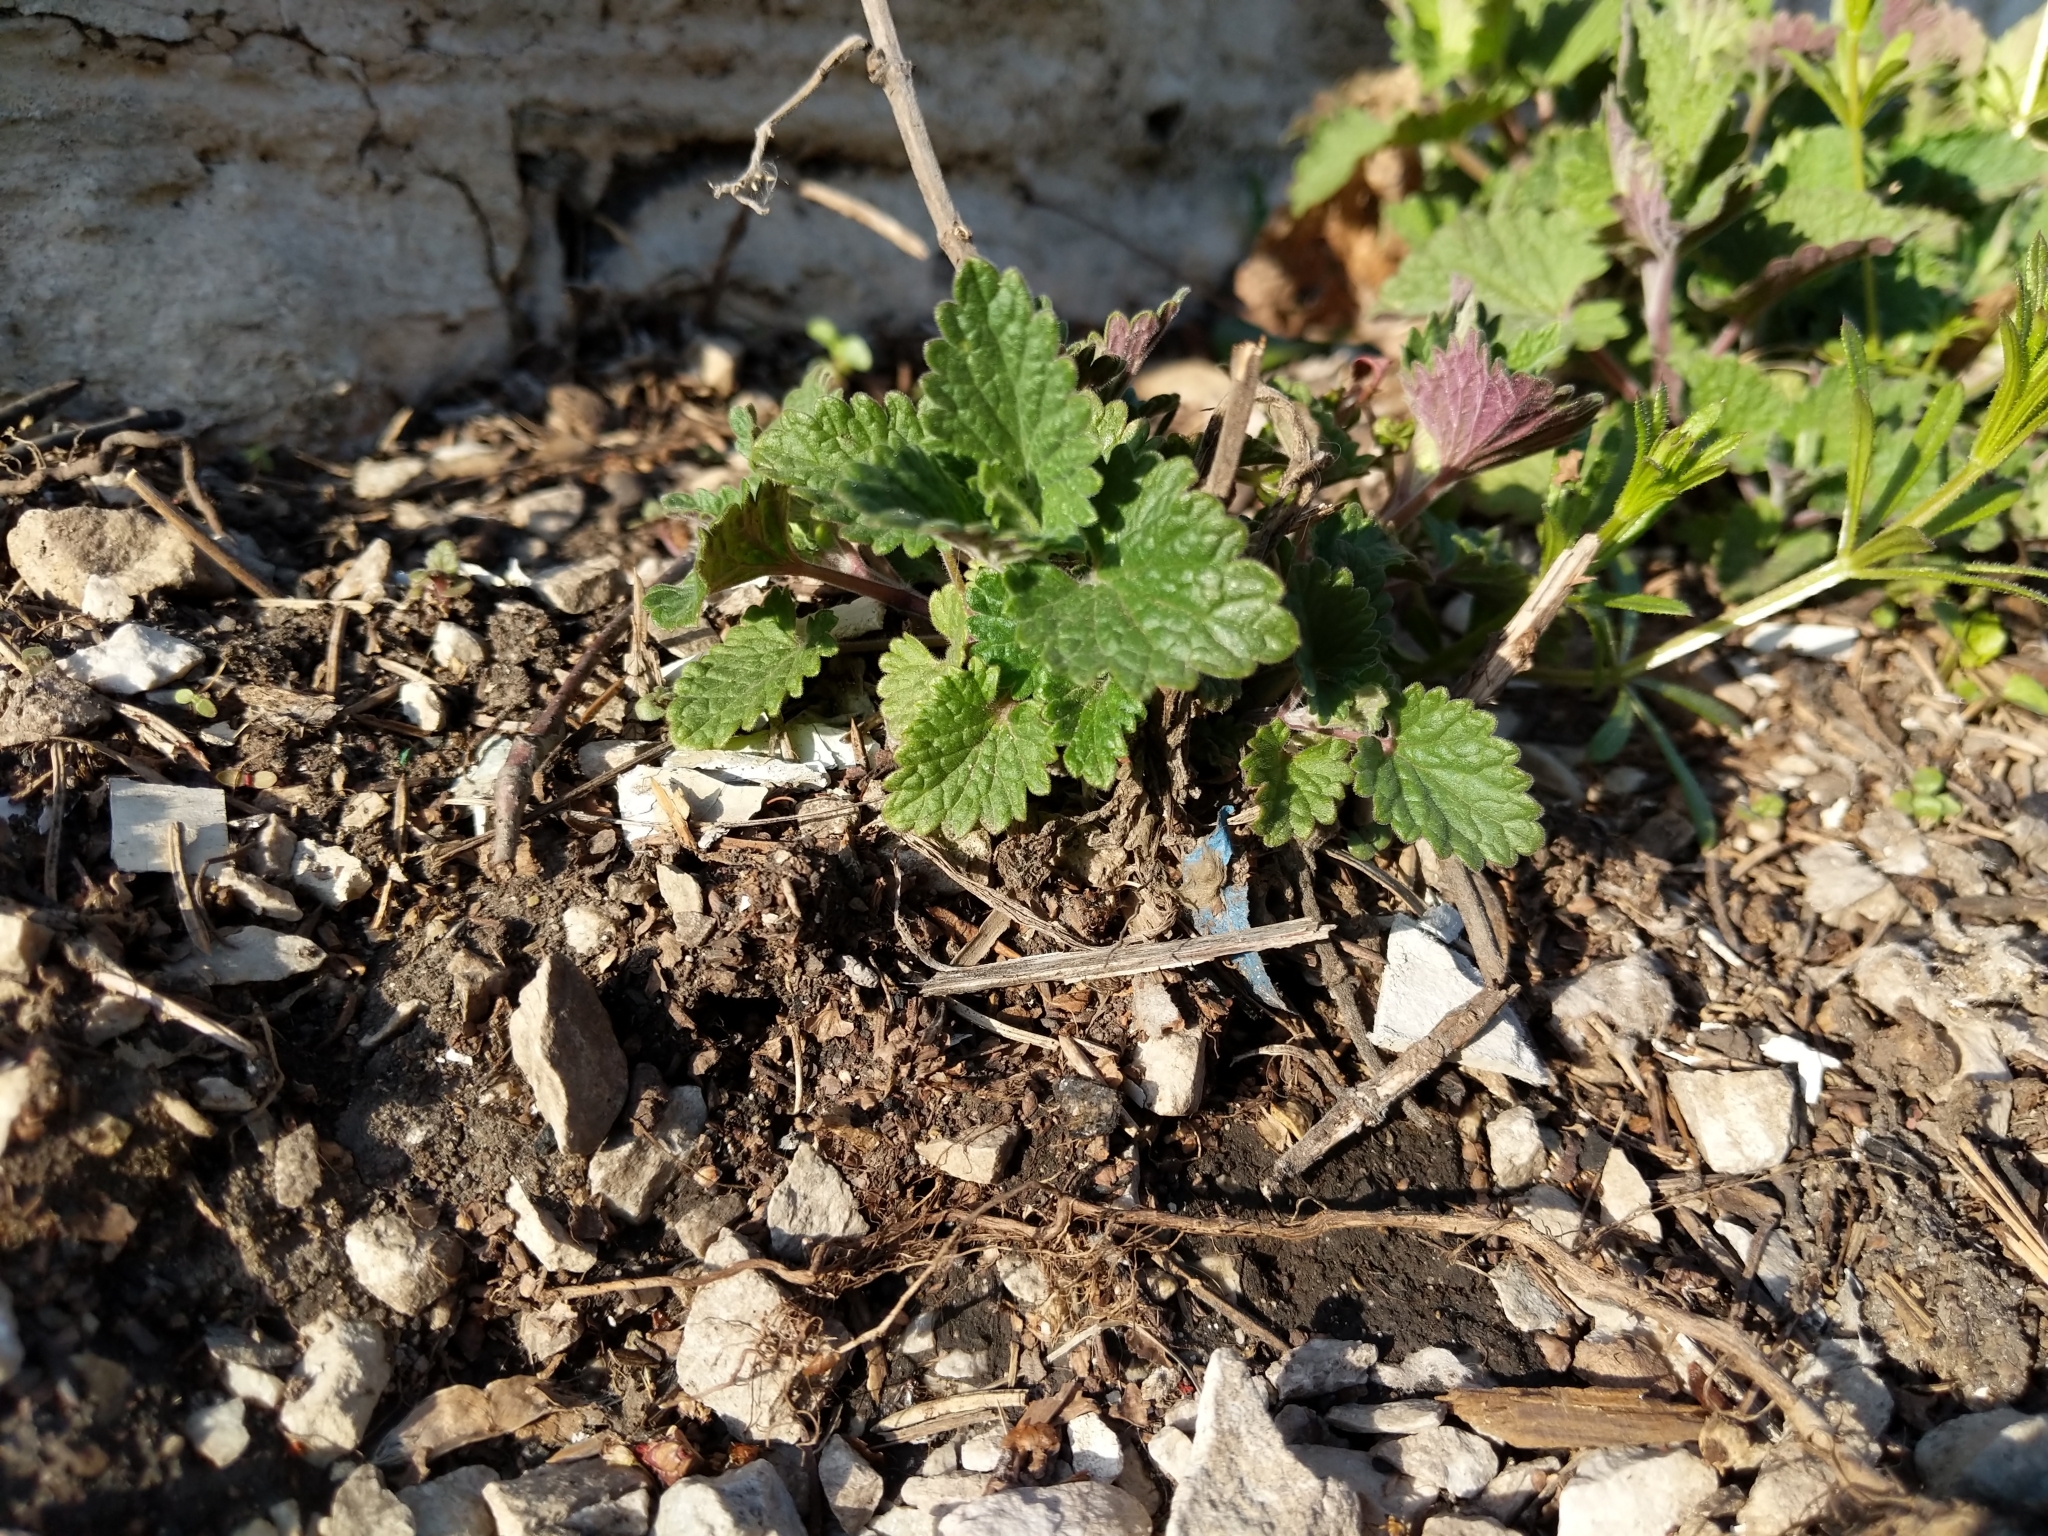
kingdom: Plantae
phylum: Tracheophyta
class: Magnoliopsida
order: Lamiales
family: Lamiaceae
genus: Nepeta
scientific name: Nepeta cataria
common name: Catnip
